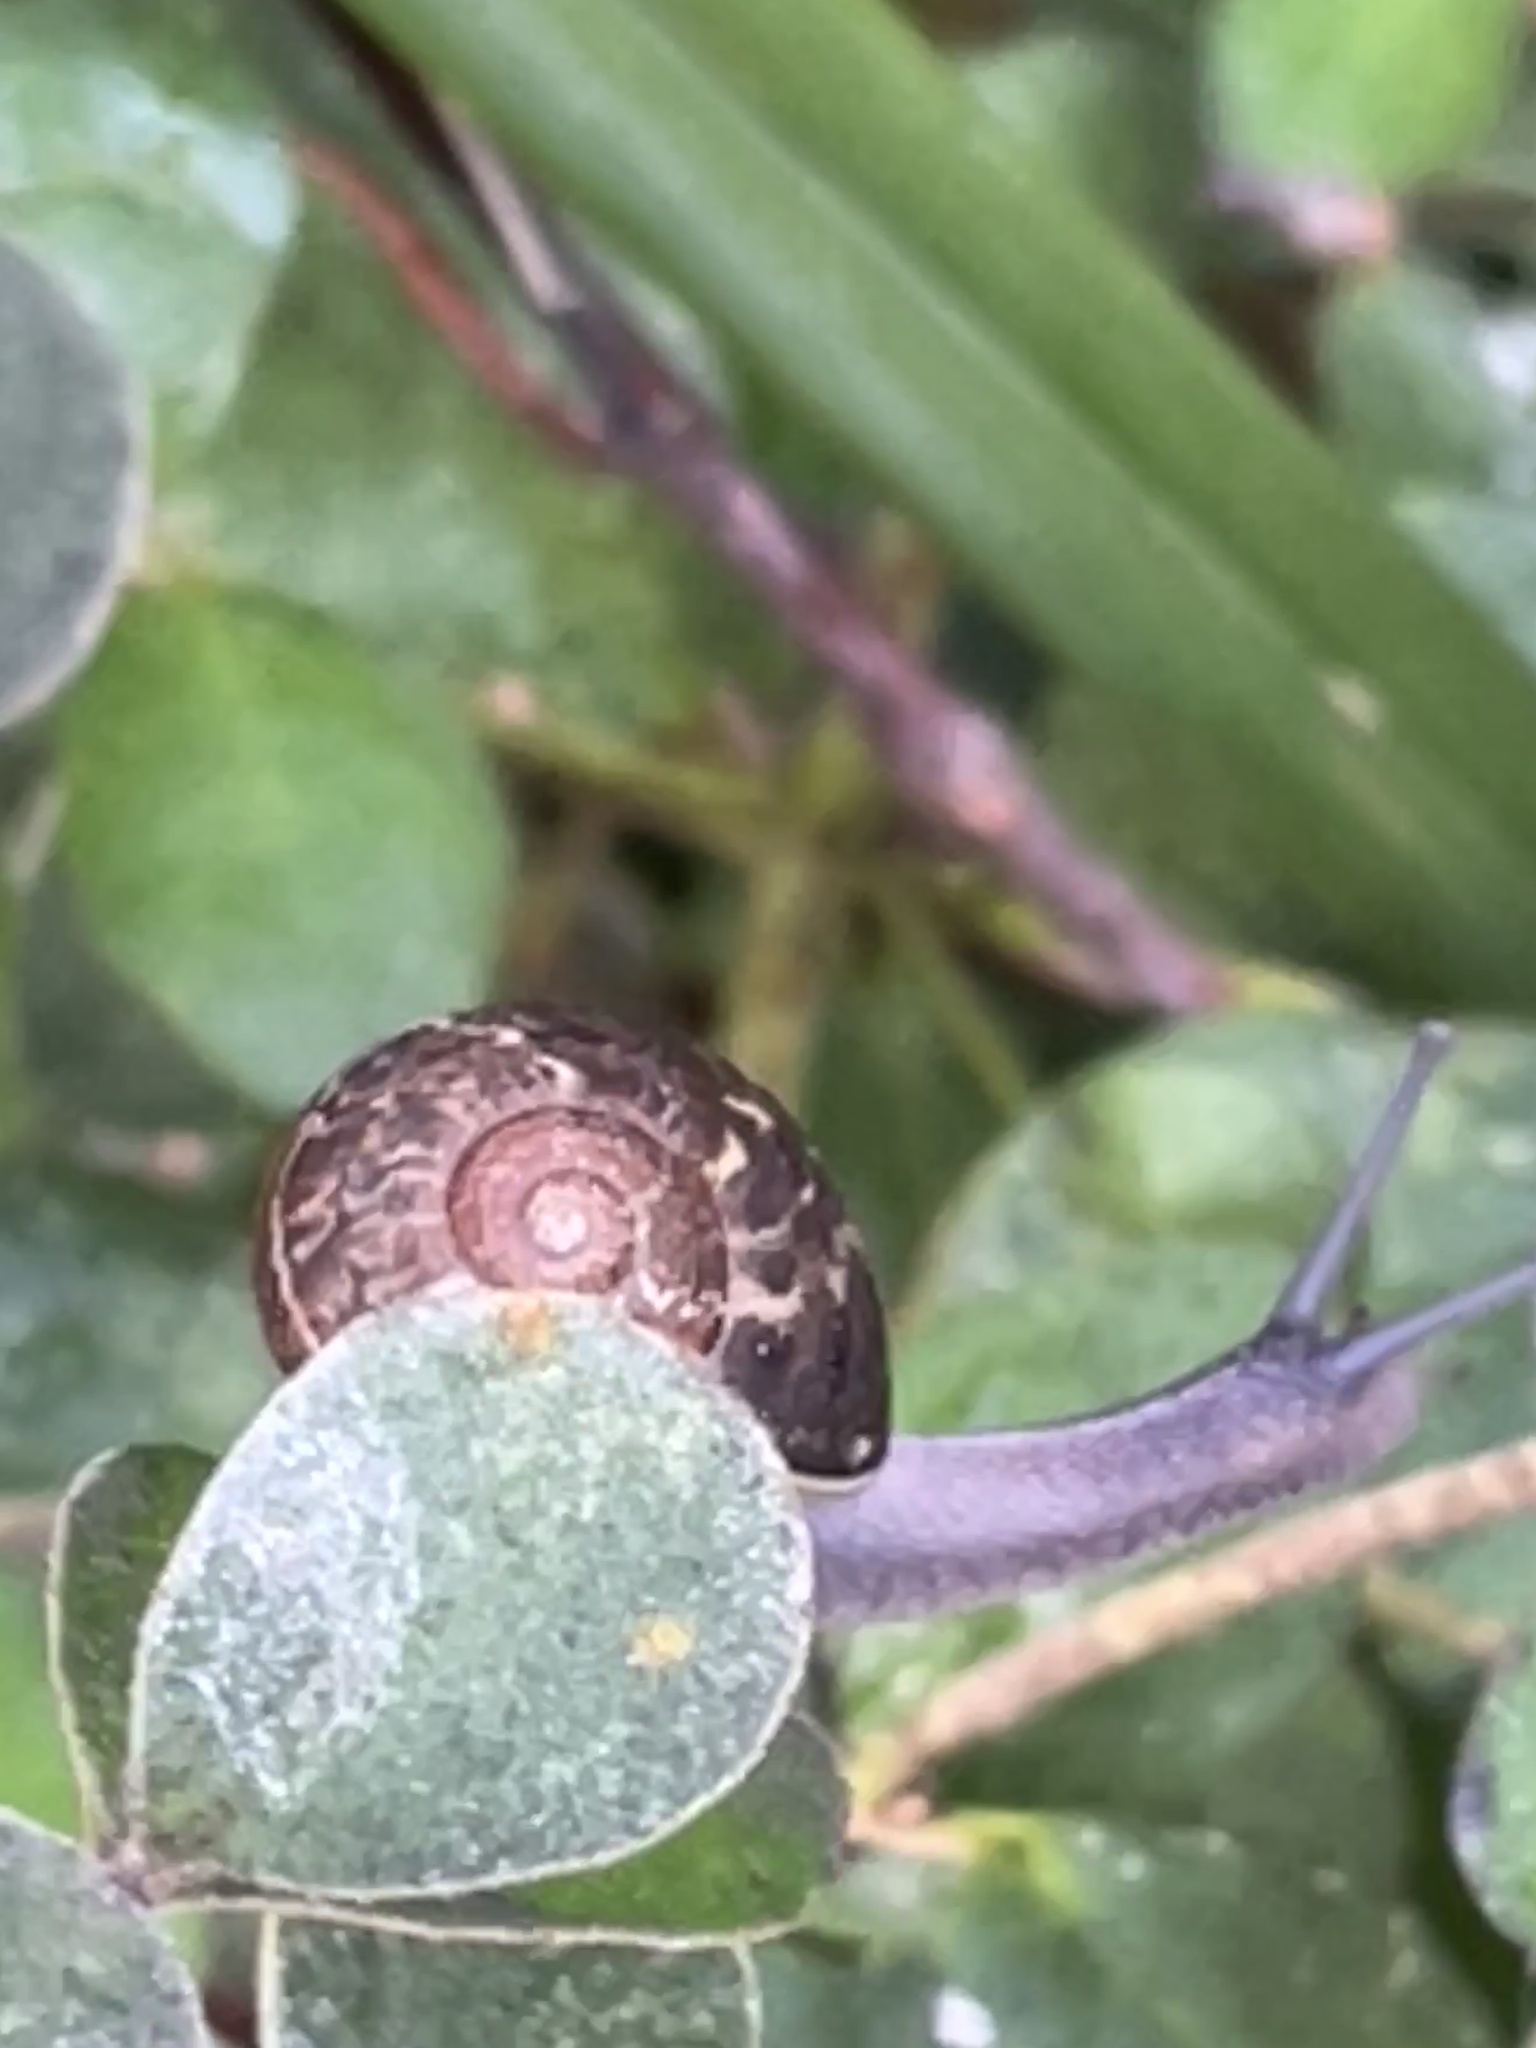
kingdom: Animalia
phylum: Mollusca
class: Gastropoda
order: Stylommatophora
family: Helicidae
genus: Cornu
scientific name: Cornu aspersum
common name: Brown garden snail
